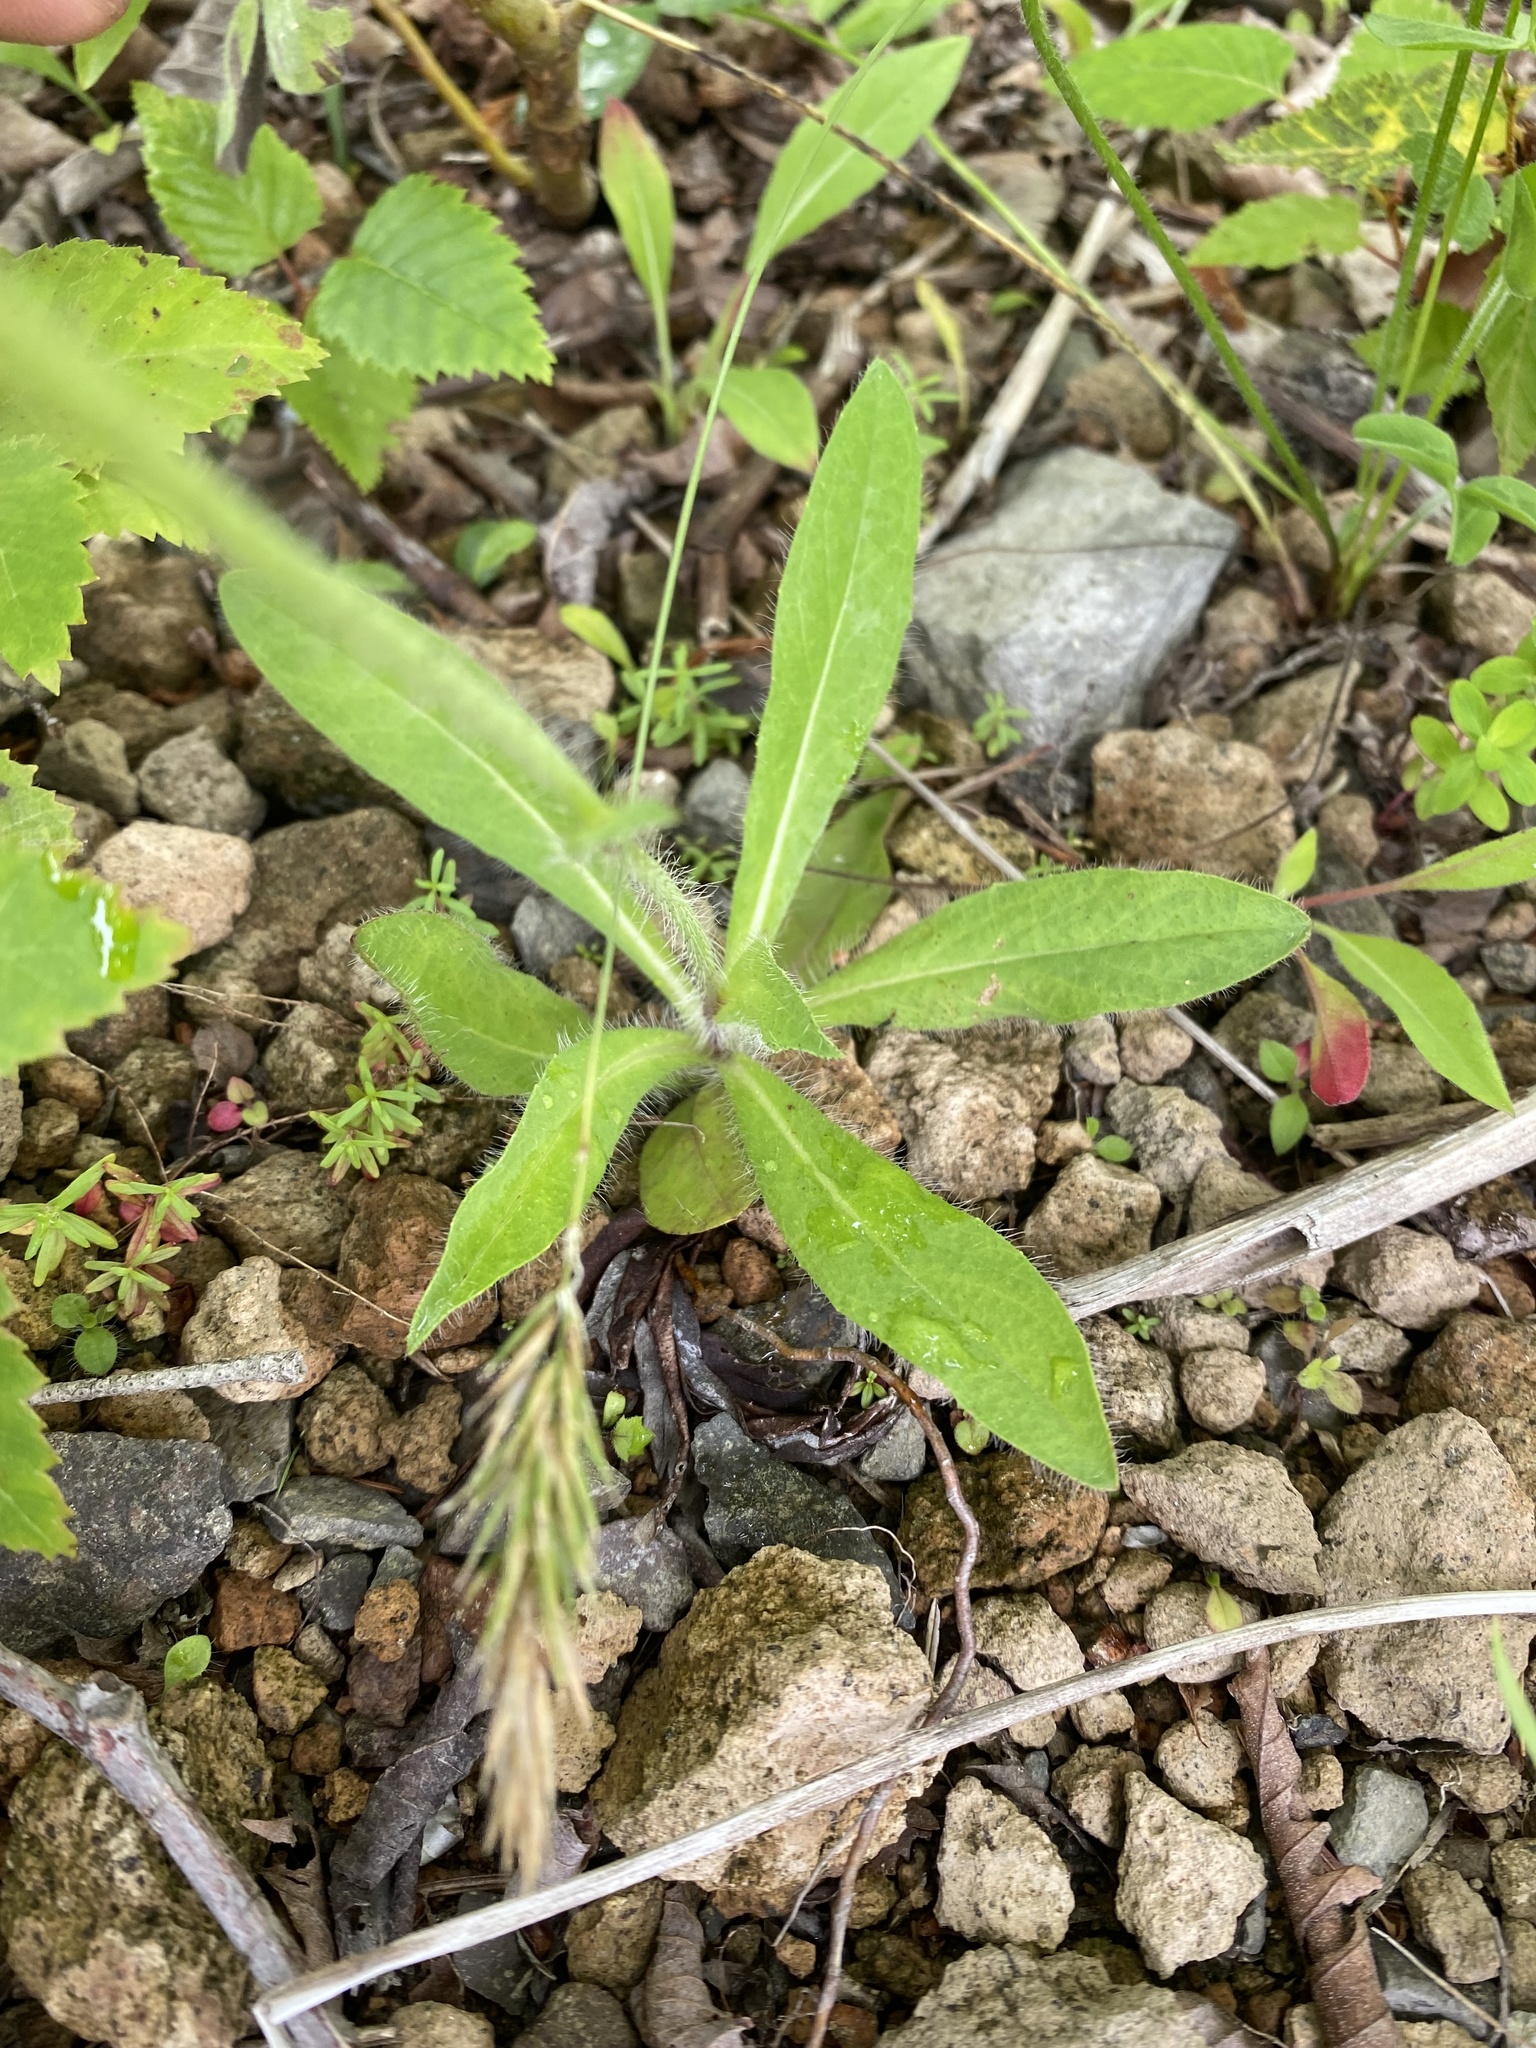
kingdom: Plantae
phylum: Tracheophyta
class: Magnoliopsida
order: Asterales
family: Asteraceae
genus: Pilosella
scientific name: Pilosella aurantiaca
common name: Fox-and-cubs
